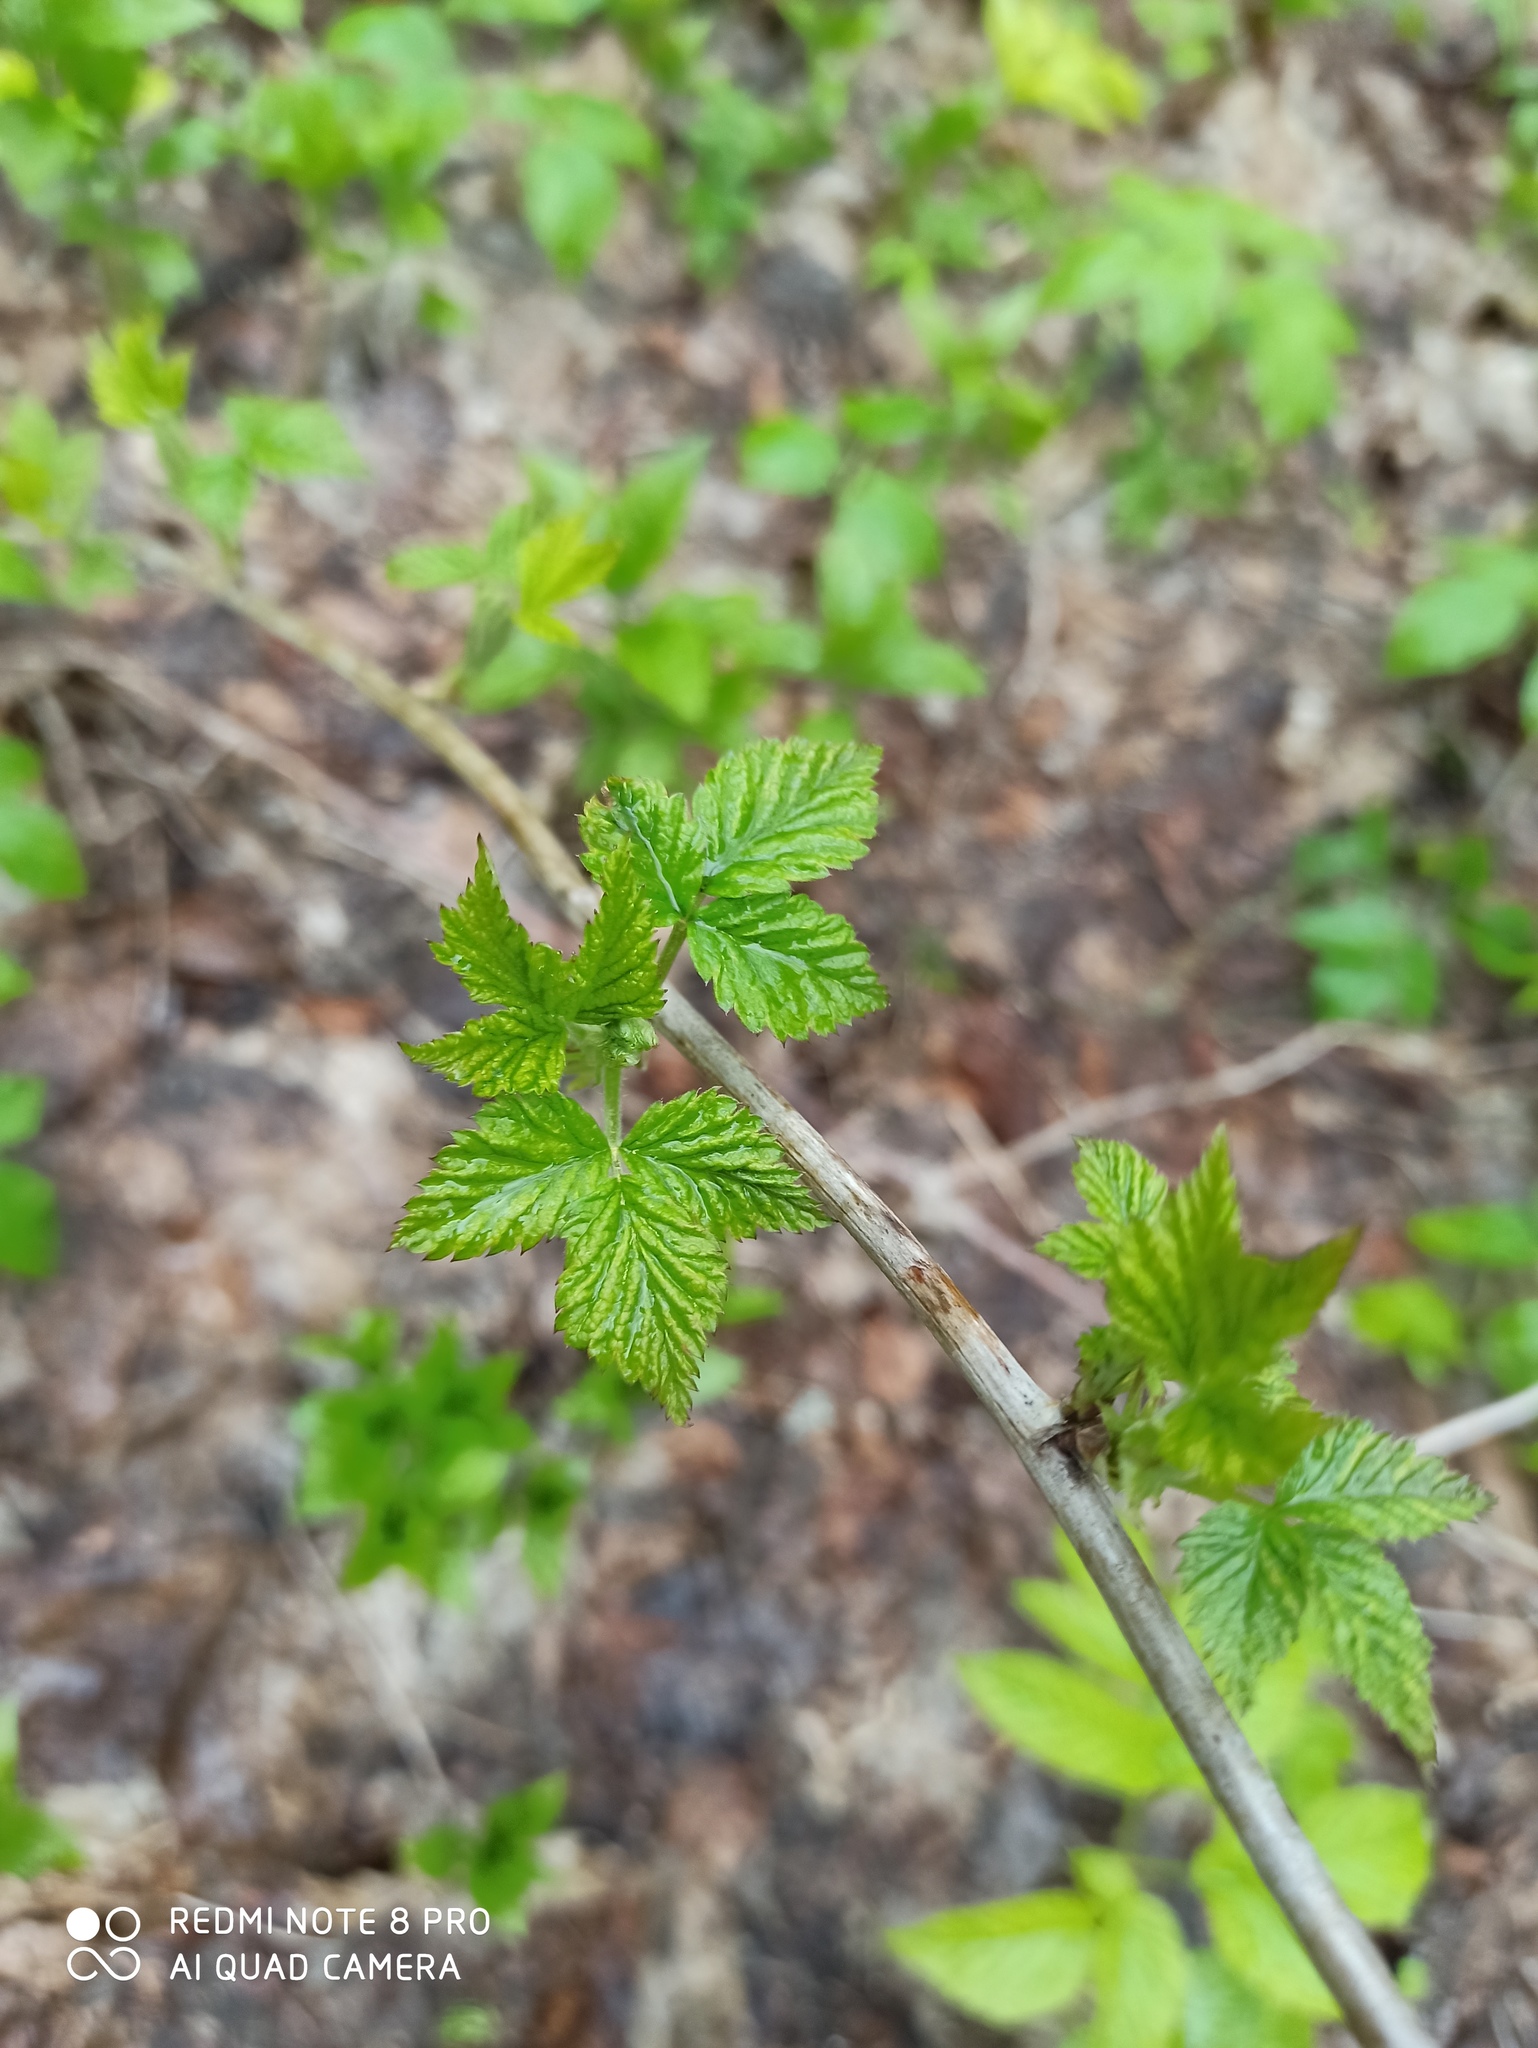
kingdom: Plantae
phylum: Tracheophyta
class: Magnoliopsida
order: Rosales
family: Rosaceae
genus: Rubus
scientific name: Rubus idaeus
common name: Raspberry
